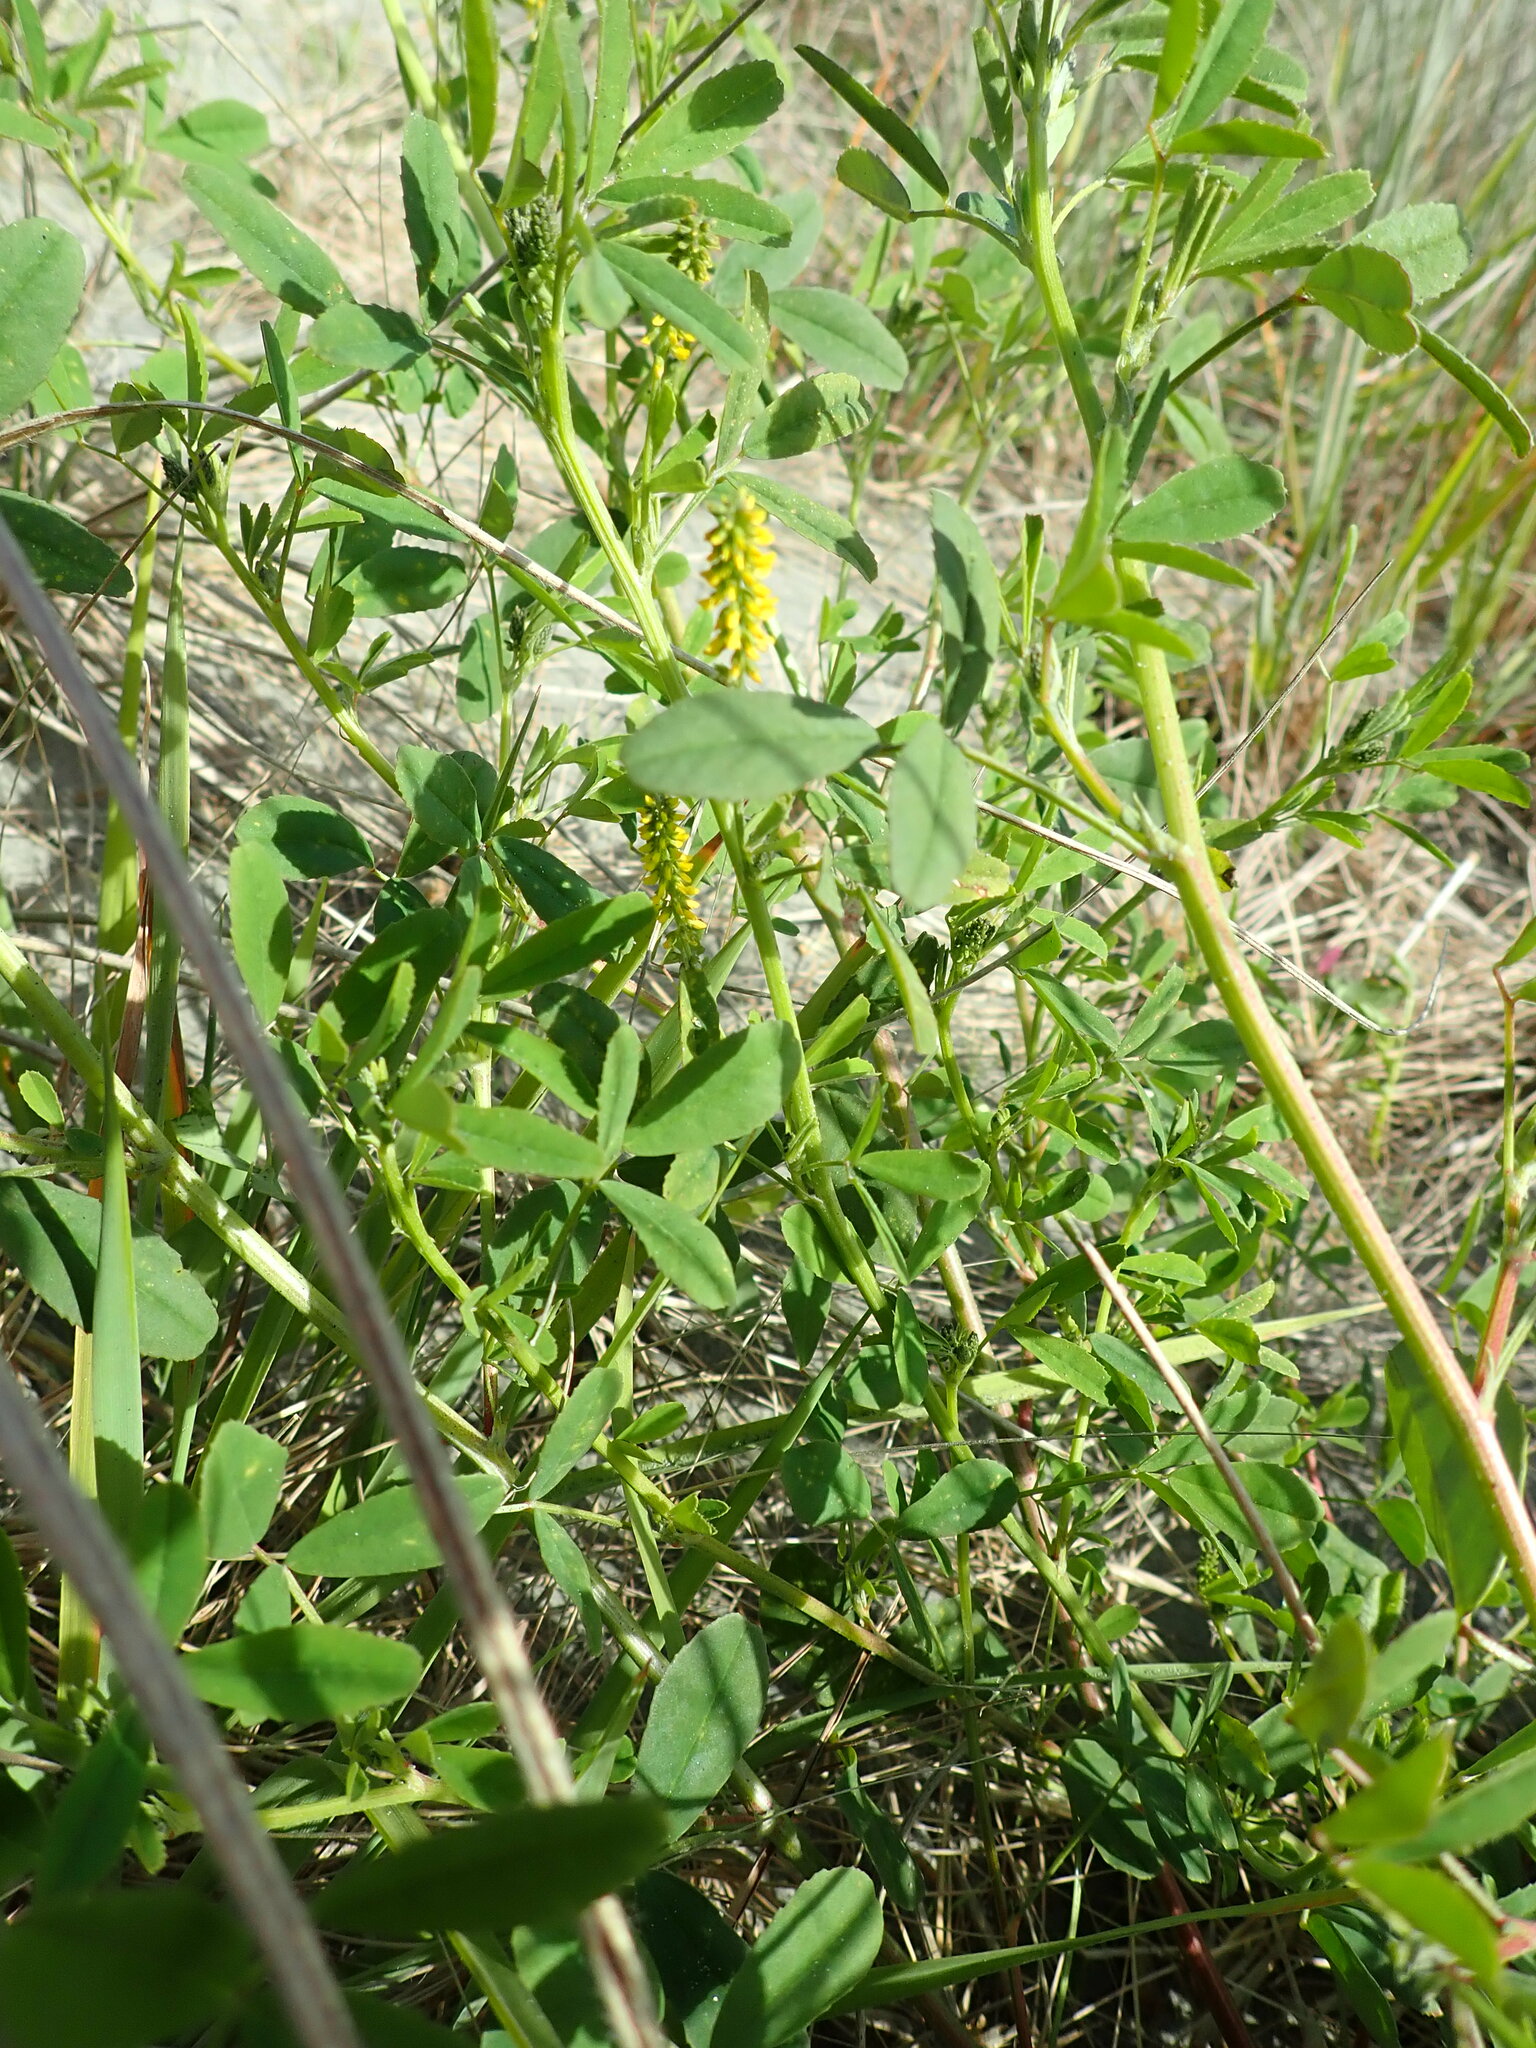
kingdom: Plantae
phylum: Tracheophyta
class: Magnoliopsida
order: Fabales
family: Fabaceae
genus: Melilotus
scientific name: Melilotus indicus
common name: Small melilot
